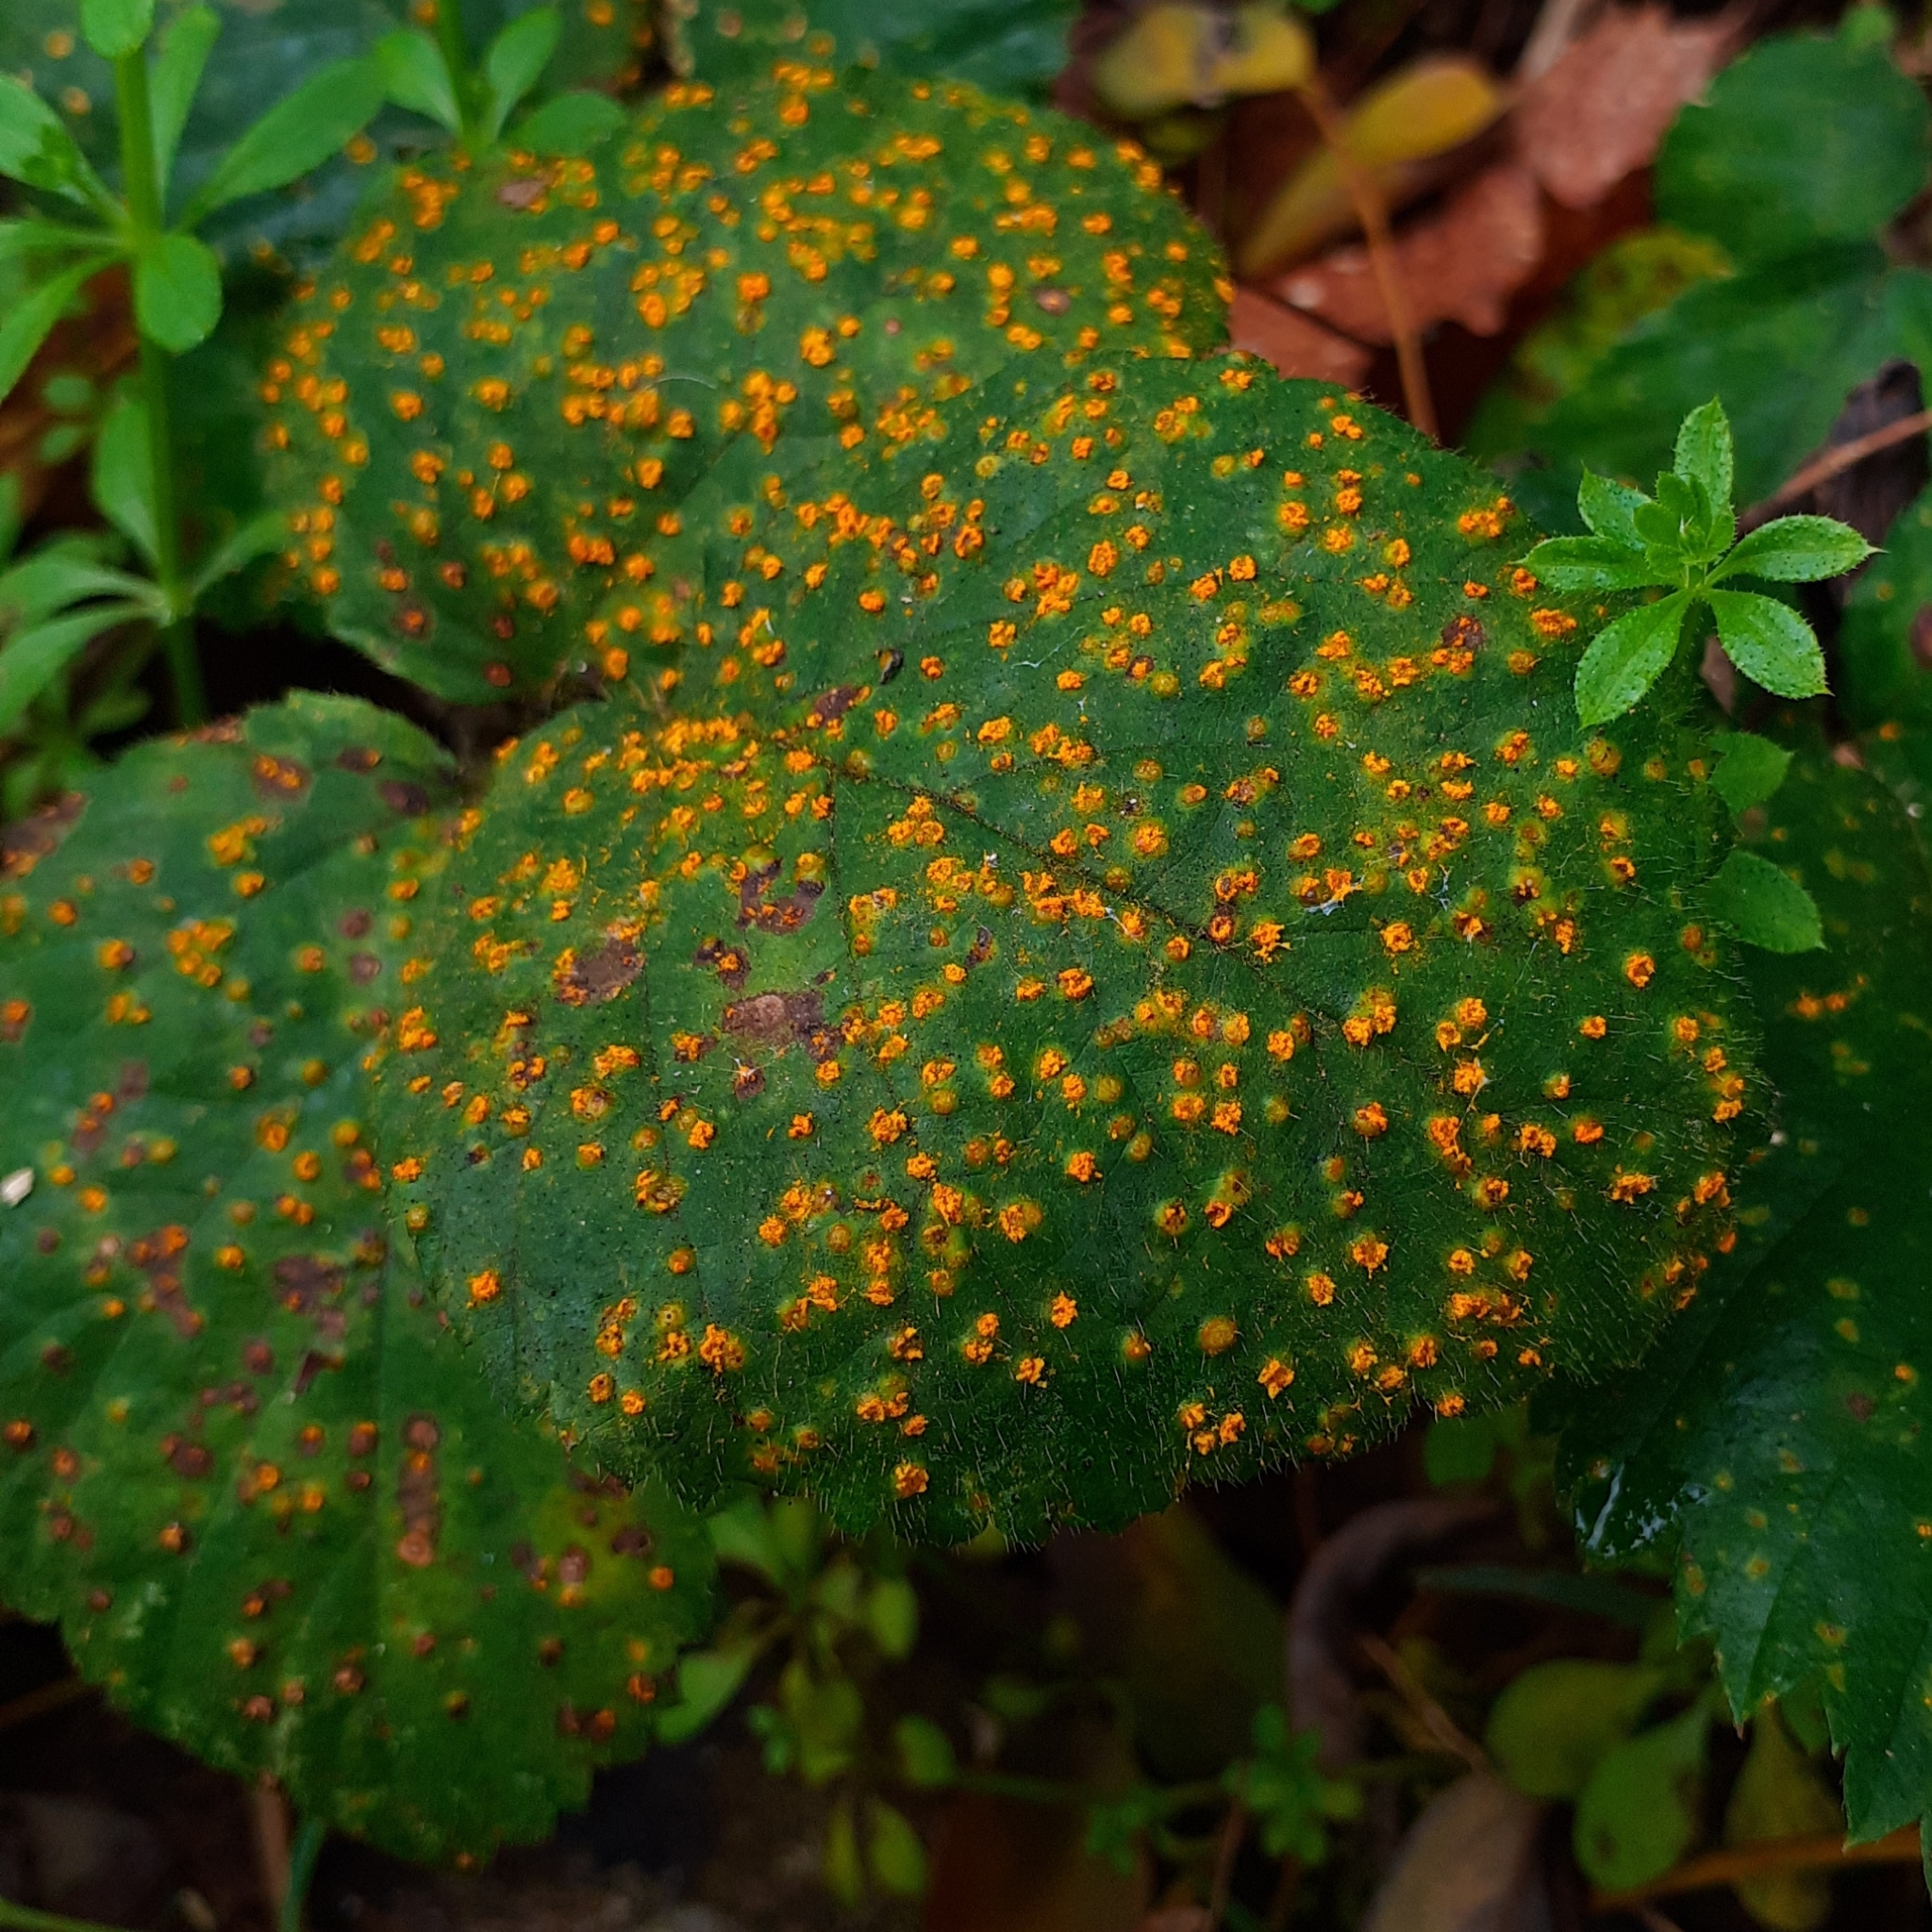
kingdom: Fungi
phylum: Basidiomycota
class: Pucciniomycetes
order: Pucciniales
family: Phragmidiaceae
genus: Kuehneola
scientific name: Kuehneola uredinis
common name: Bramble stem rust
